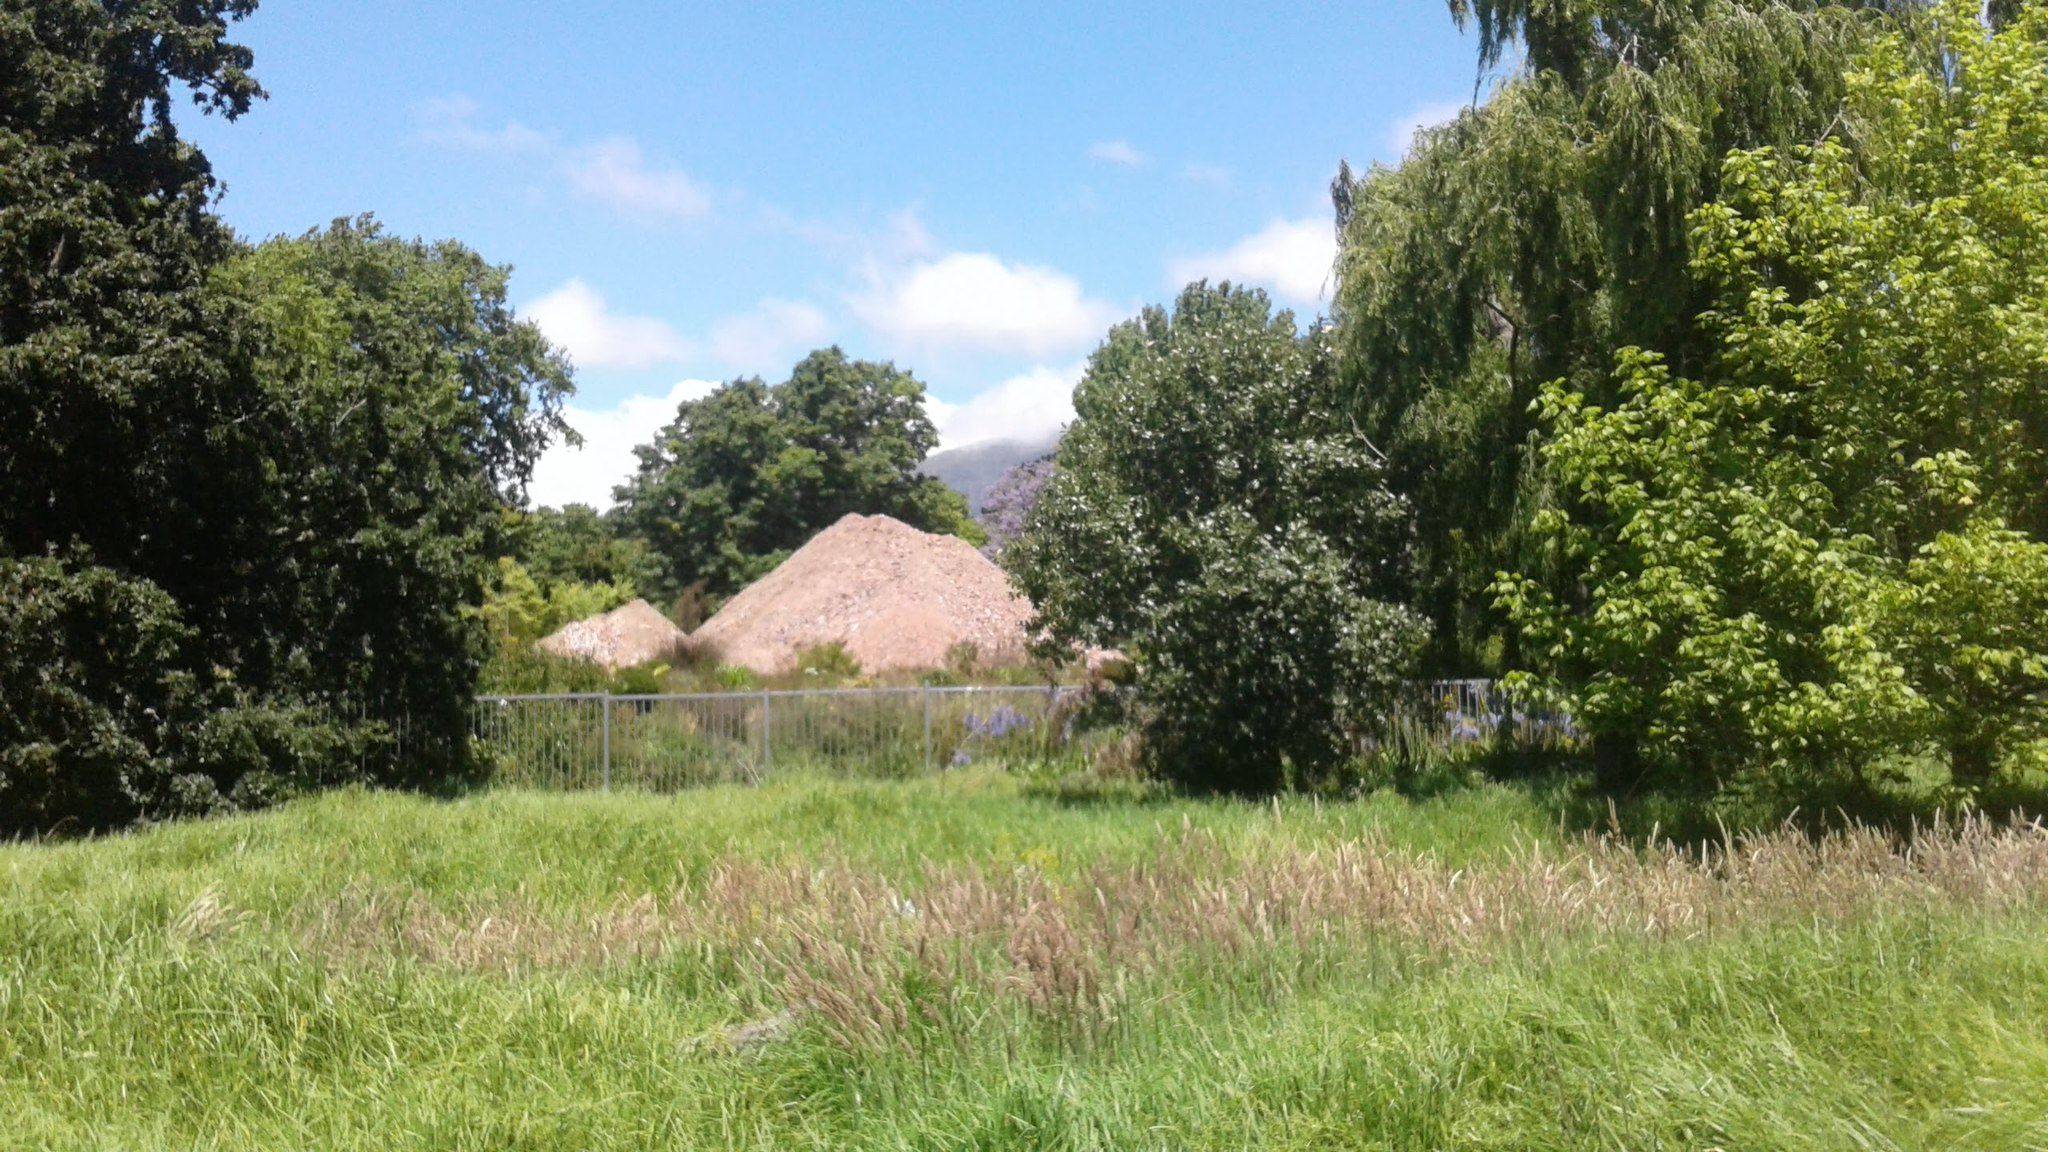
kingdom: Plantae
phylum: Tracheophyta
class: Magnoliopsida
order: Sapindales
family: Sapindaceae
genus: Acer
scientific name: Acer negundo
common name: Ashleaf maple
